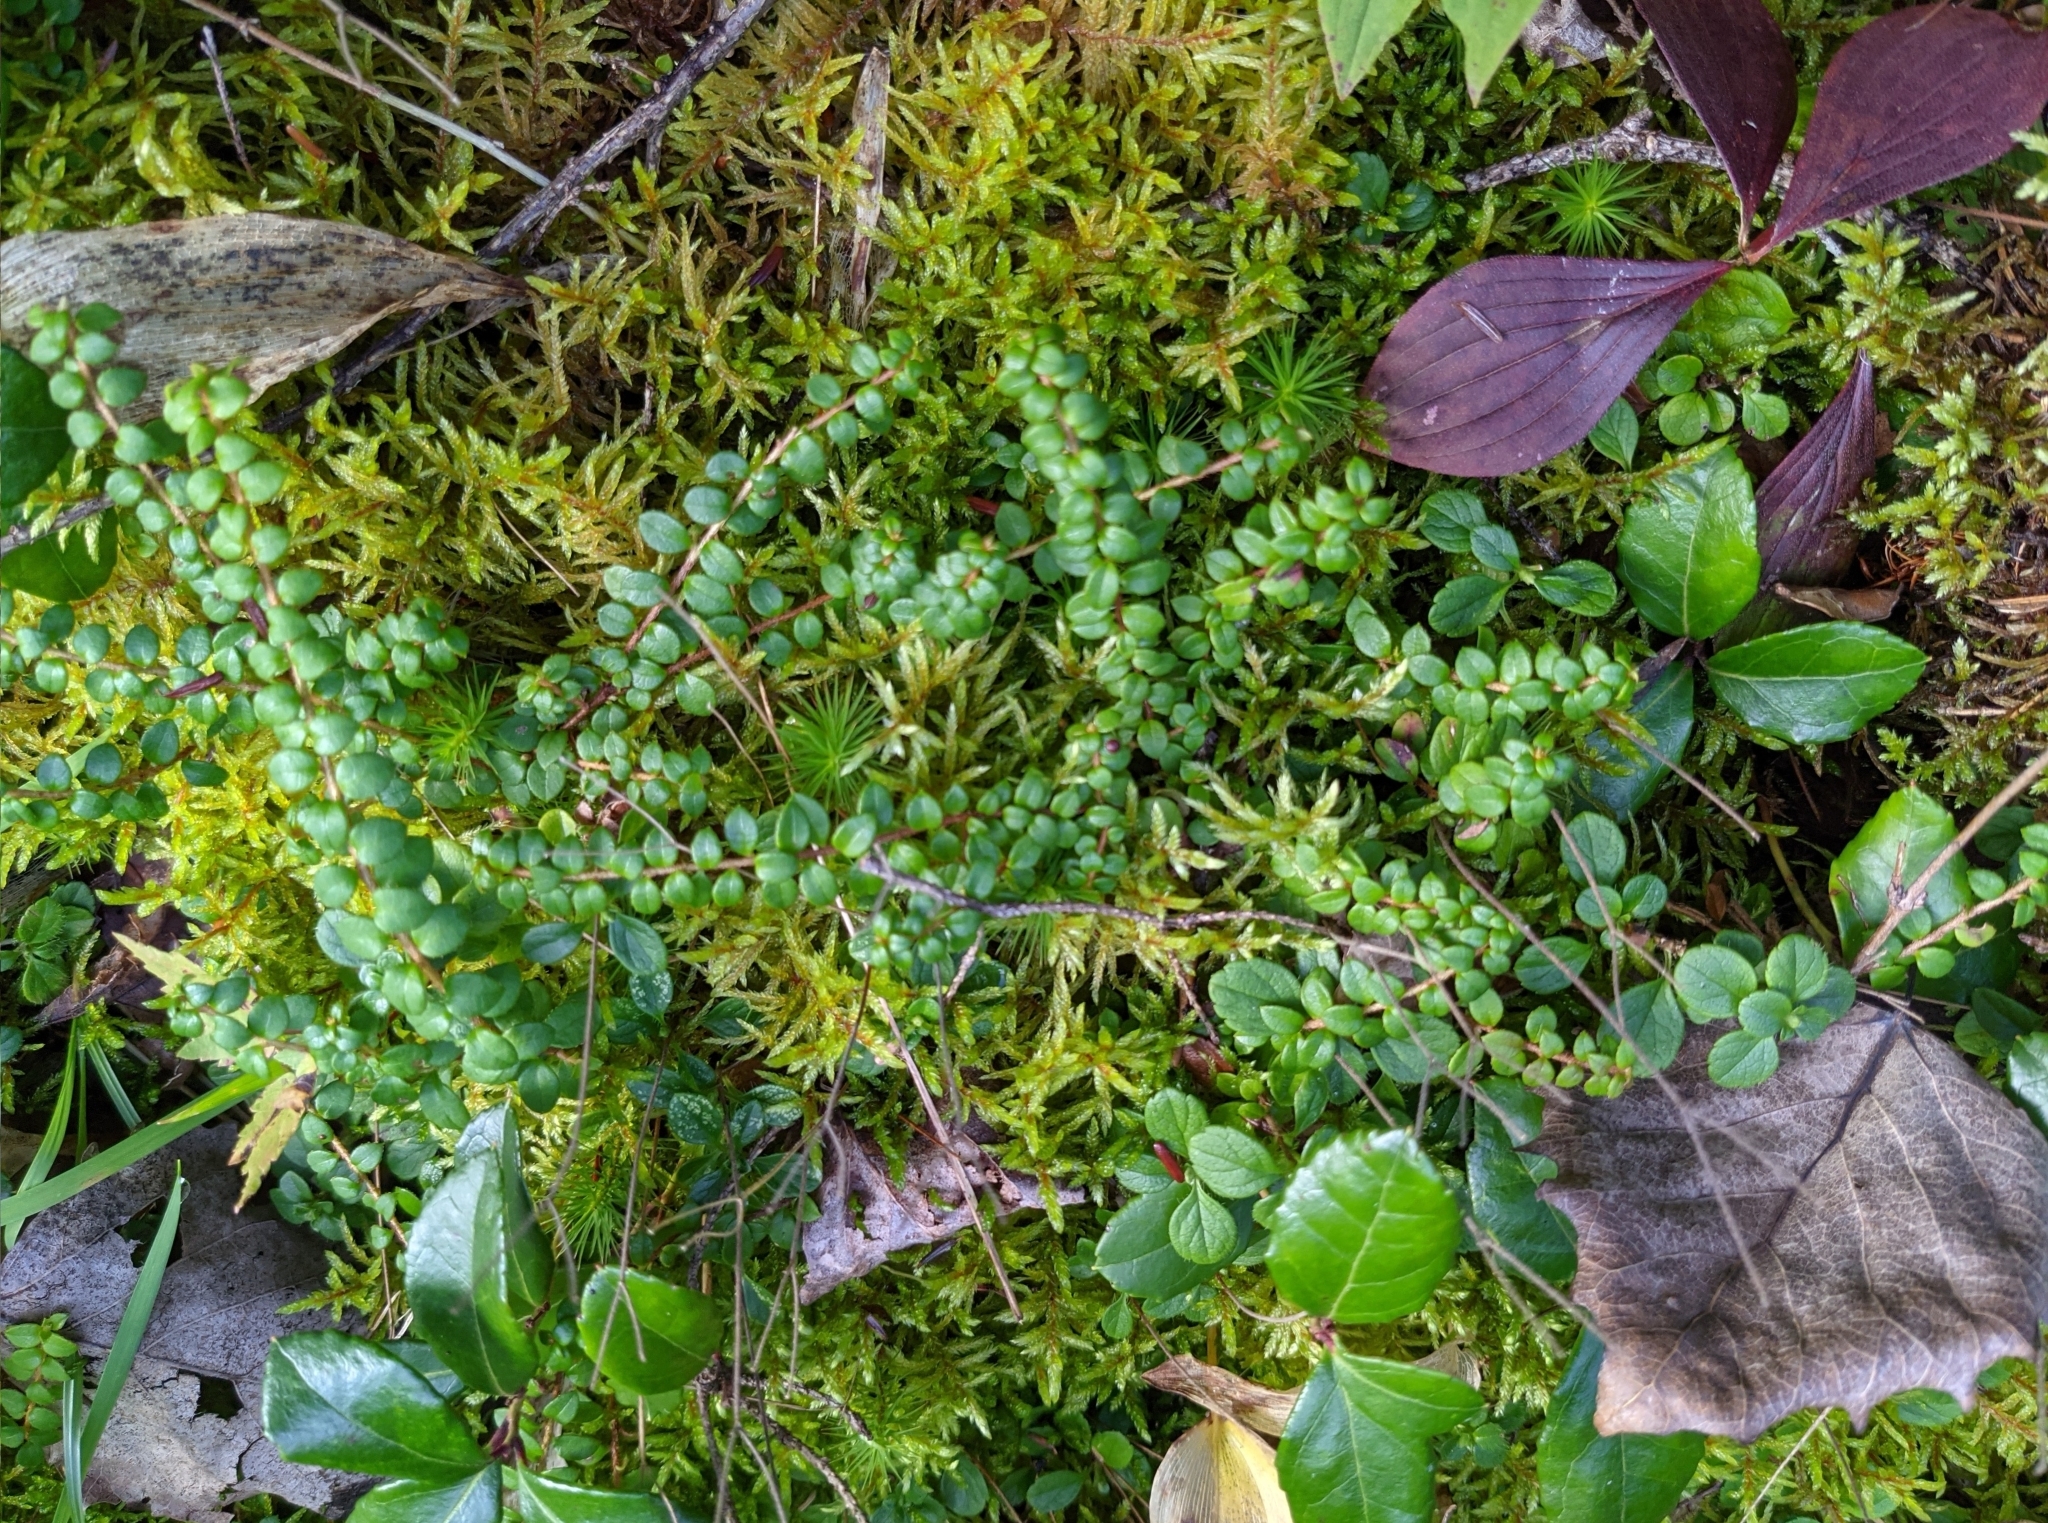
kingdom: Plantae
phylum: Tracheophyta
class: Magnoliopsida
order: Ericales
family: Ericaceae
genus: Gaultheria
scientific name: Gaultheria hispidula
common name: Cancer wintergreen
